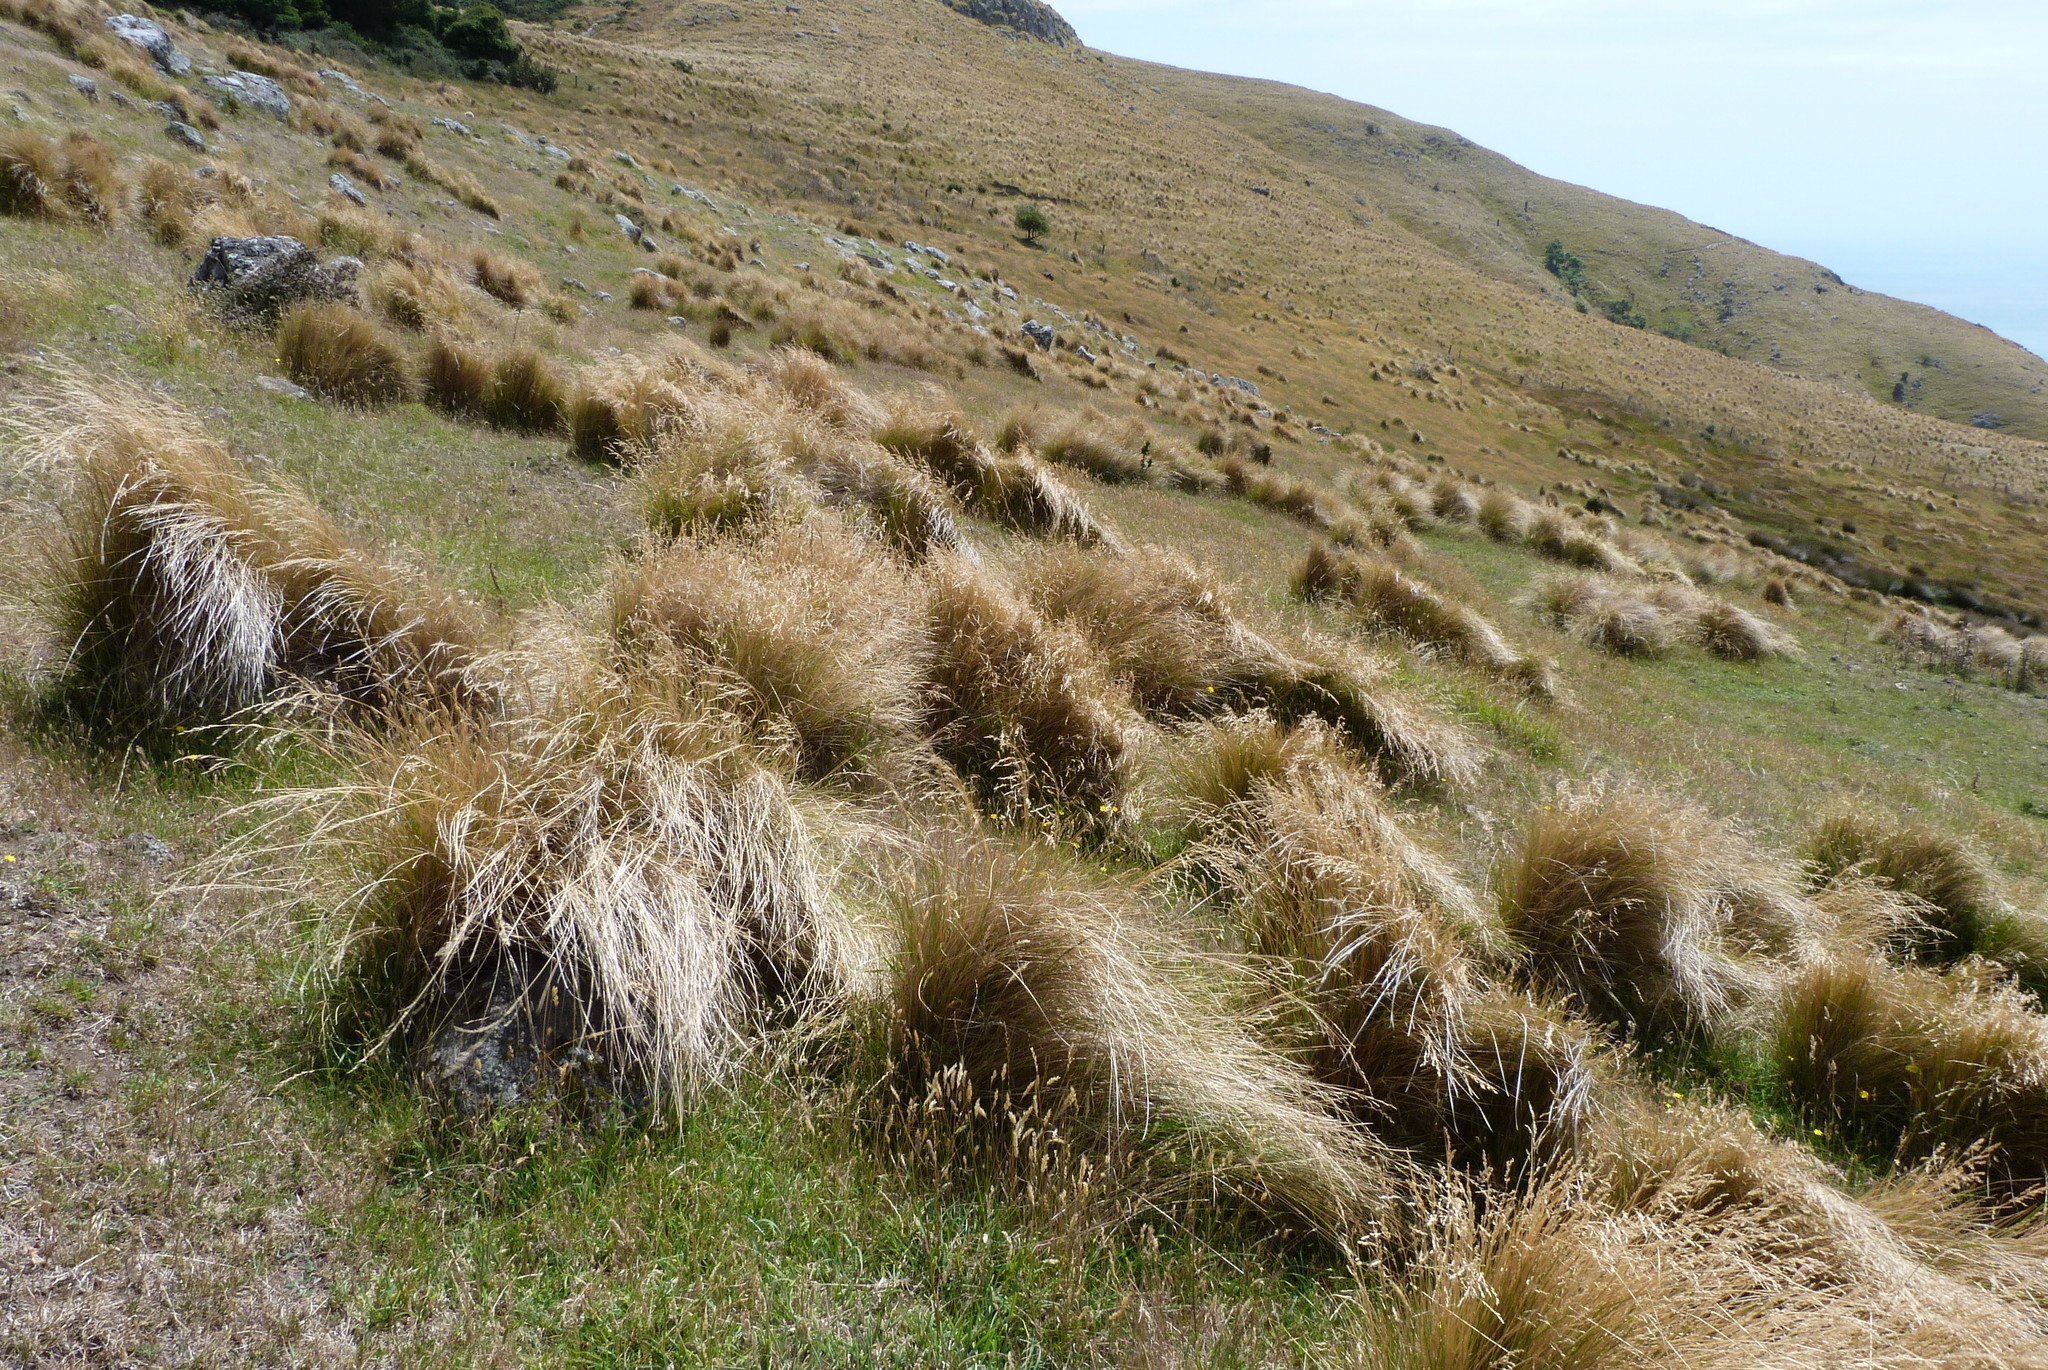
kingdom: Plantae
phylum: Tracheophyta
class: Liliopsida
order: Poales
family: Poaceae
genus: Poa
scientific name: Poa cita
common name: Silver tussock
